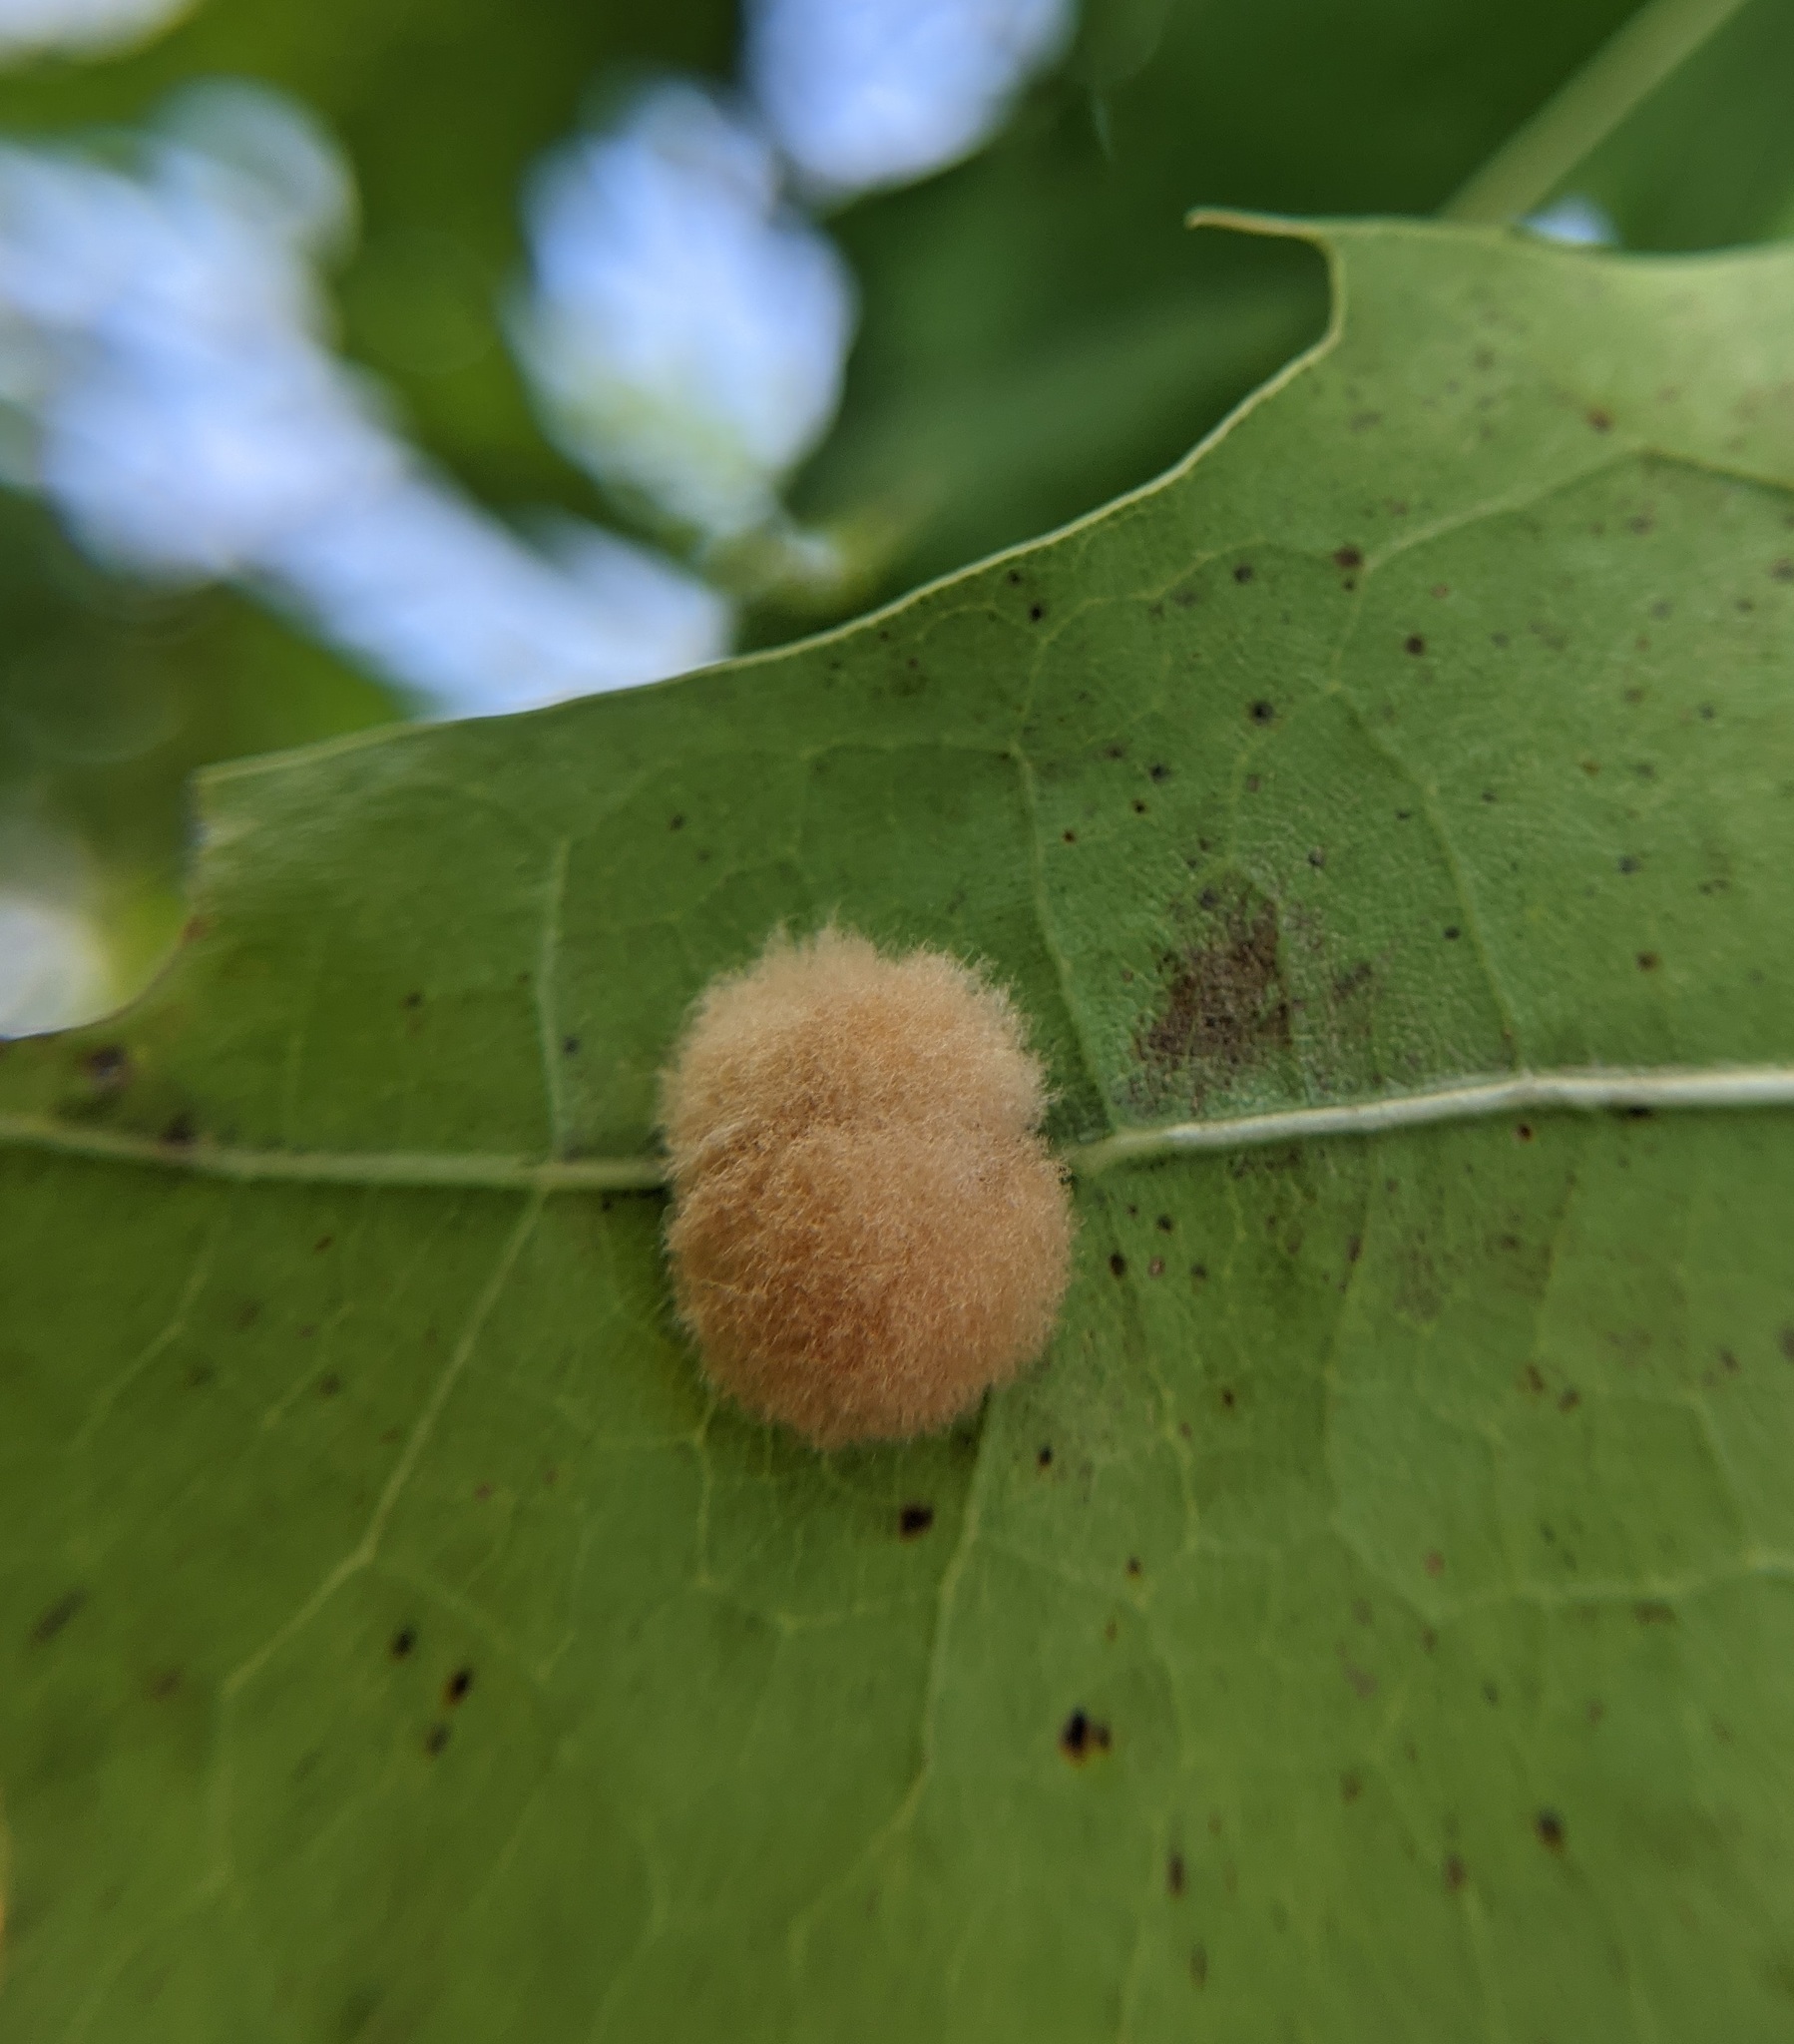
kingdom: Animalia
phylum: Arthropoda
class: Insecta
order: Hymenoptera
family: Cynipidae
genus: Callirhytis
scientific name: Callirhytis
